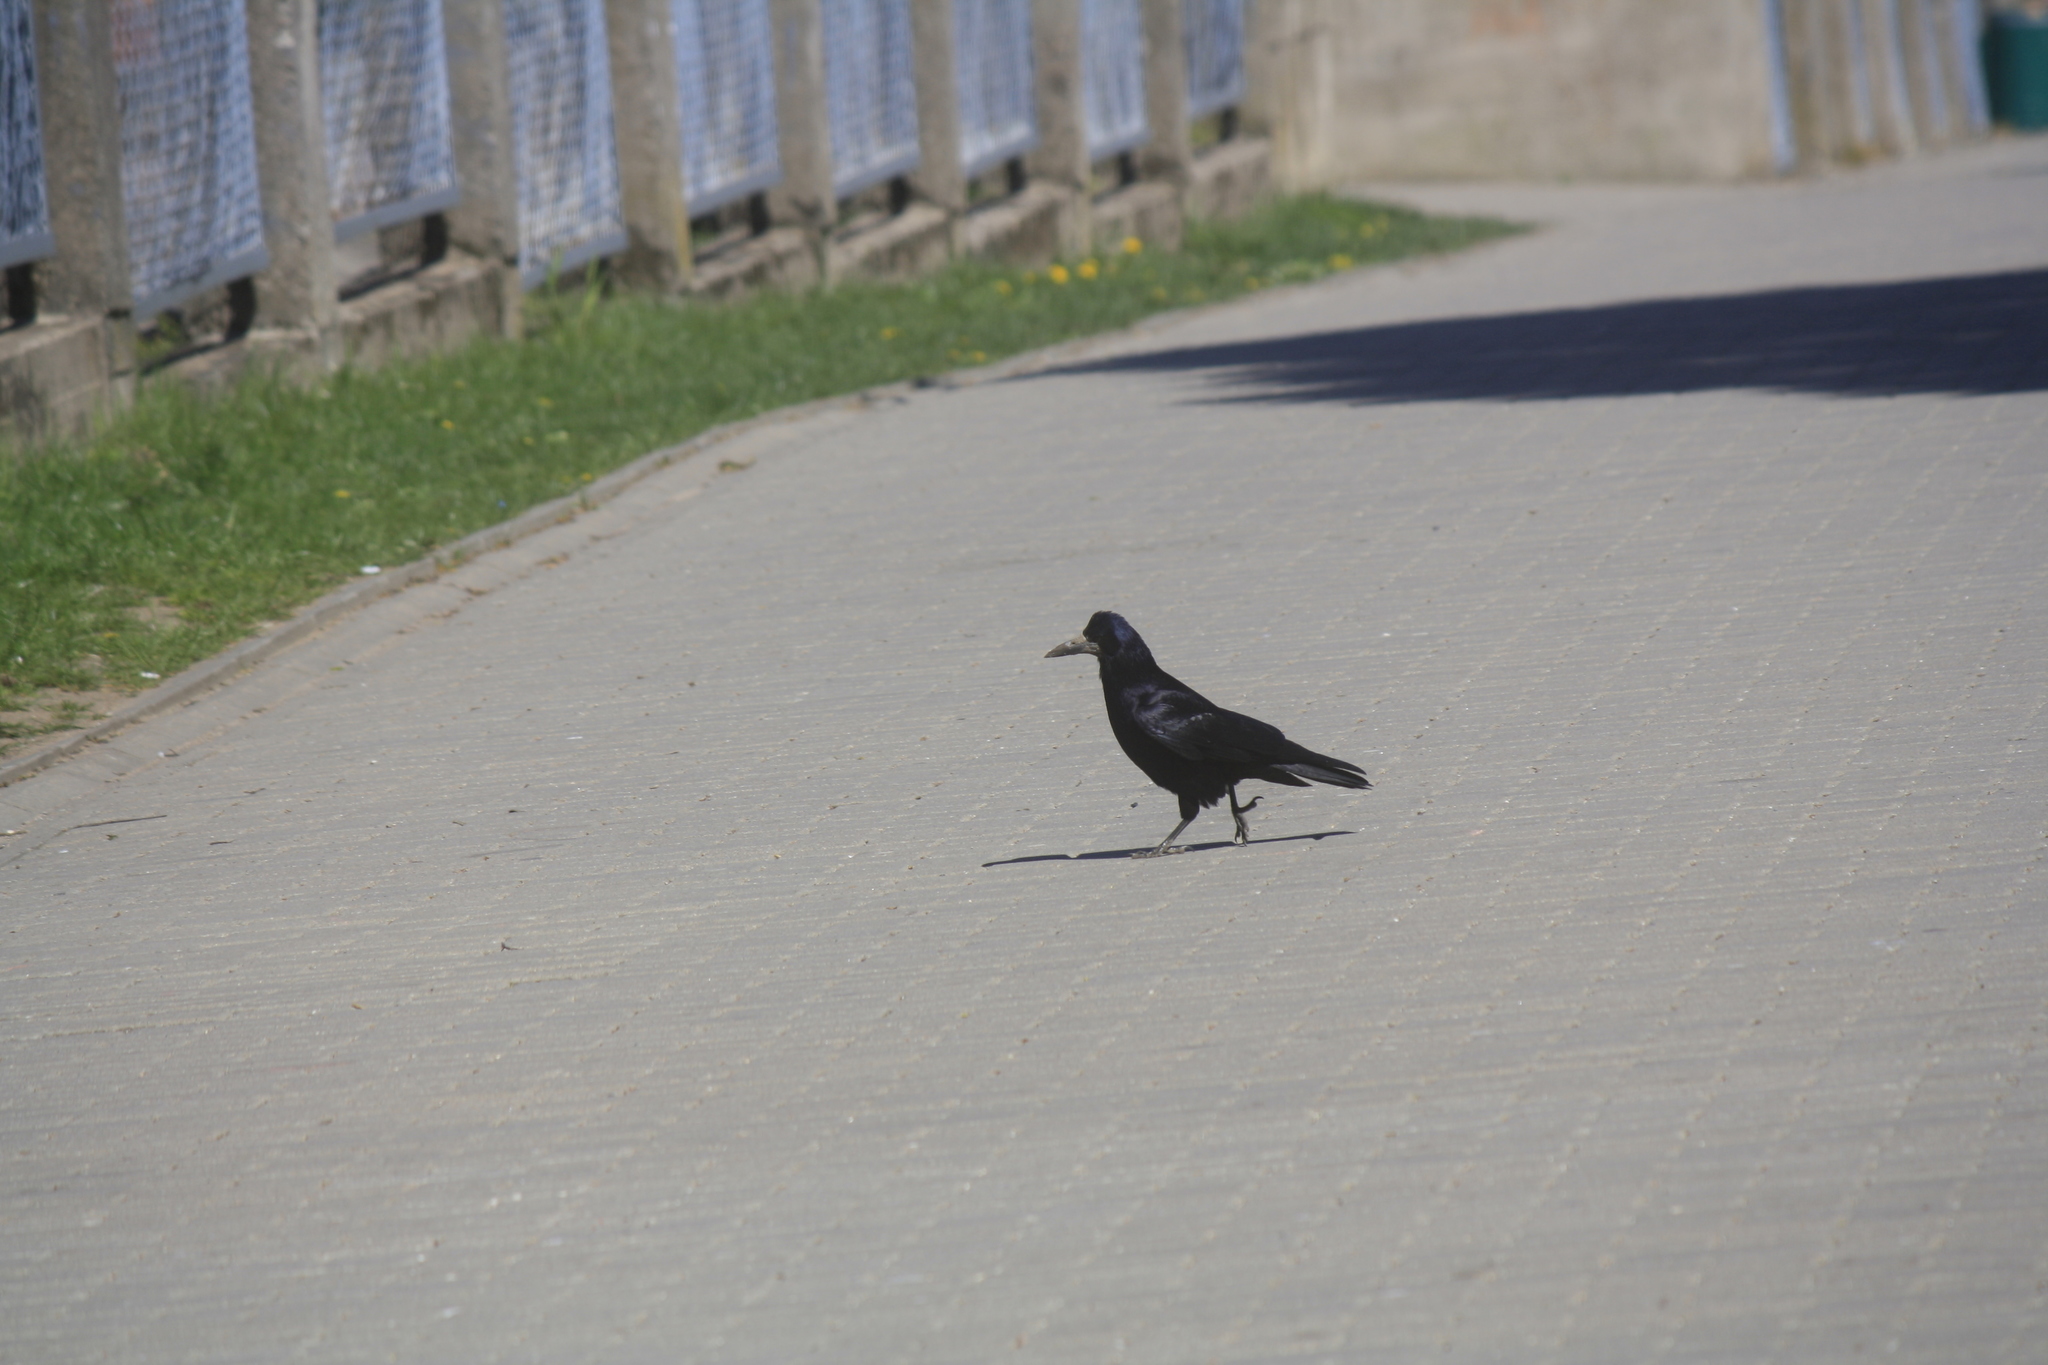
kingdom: Animalia
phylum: Chordata
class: Aves
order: Passeriformes
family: Corvidae
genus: Corvus
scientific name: Corvus frugilegus
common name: Rook
